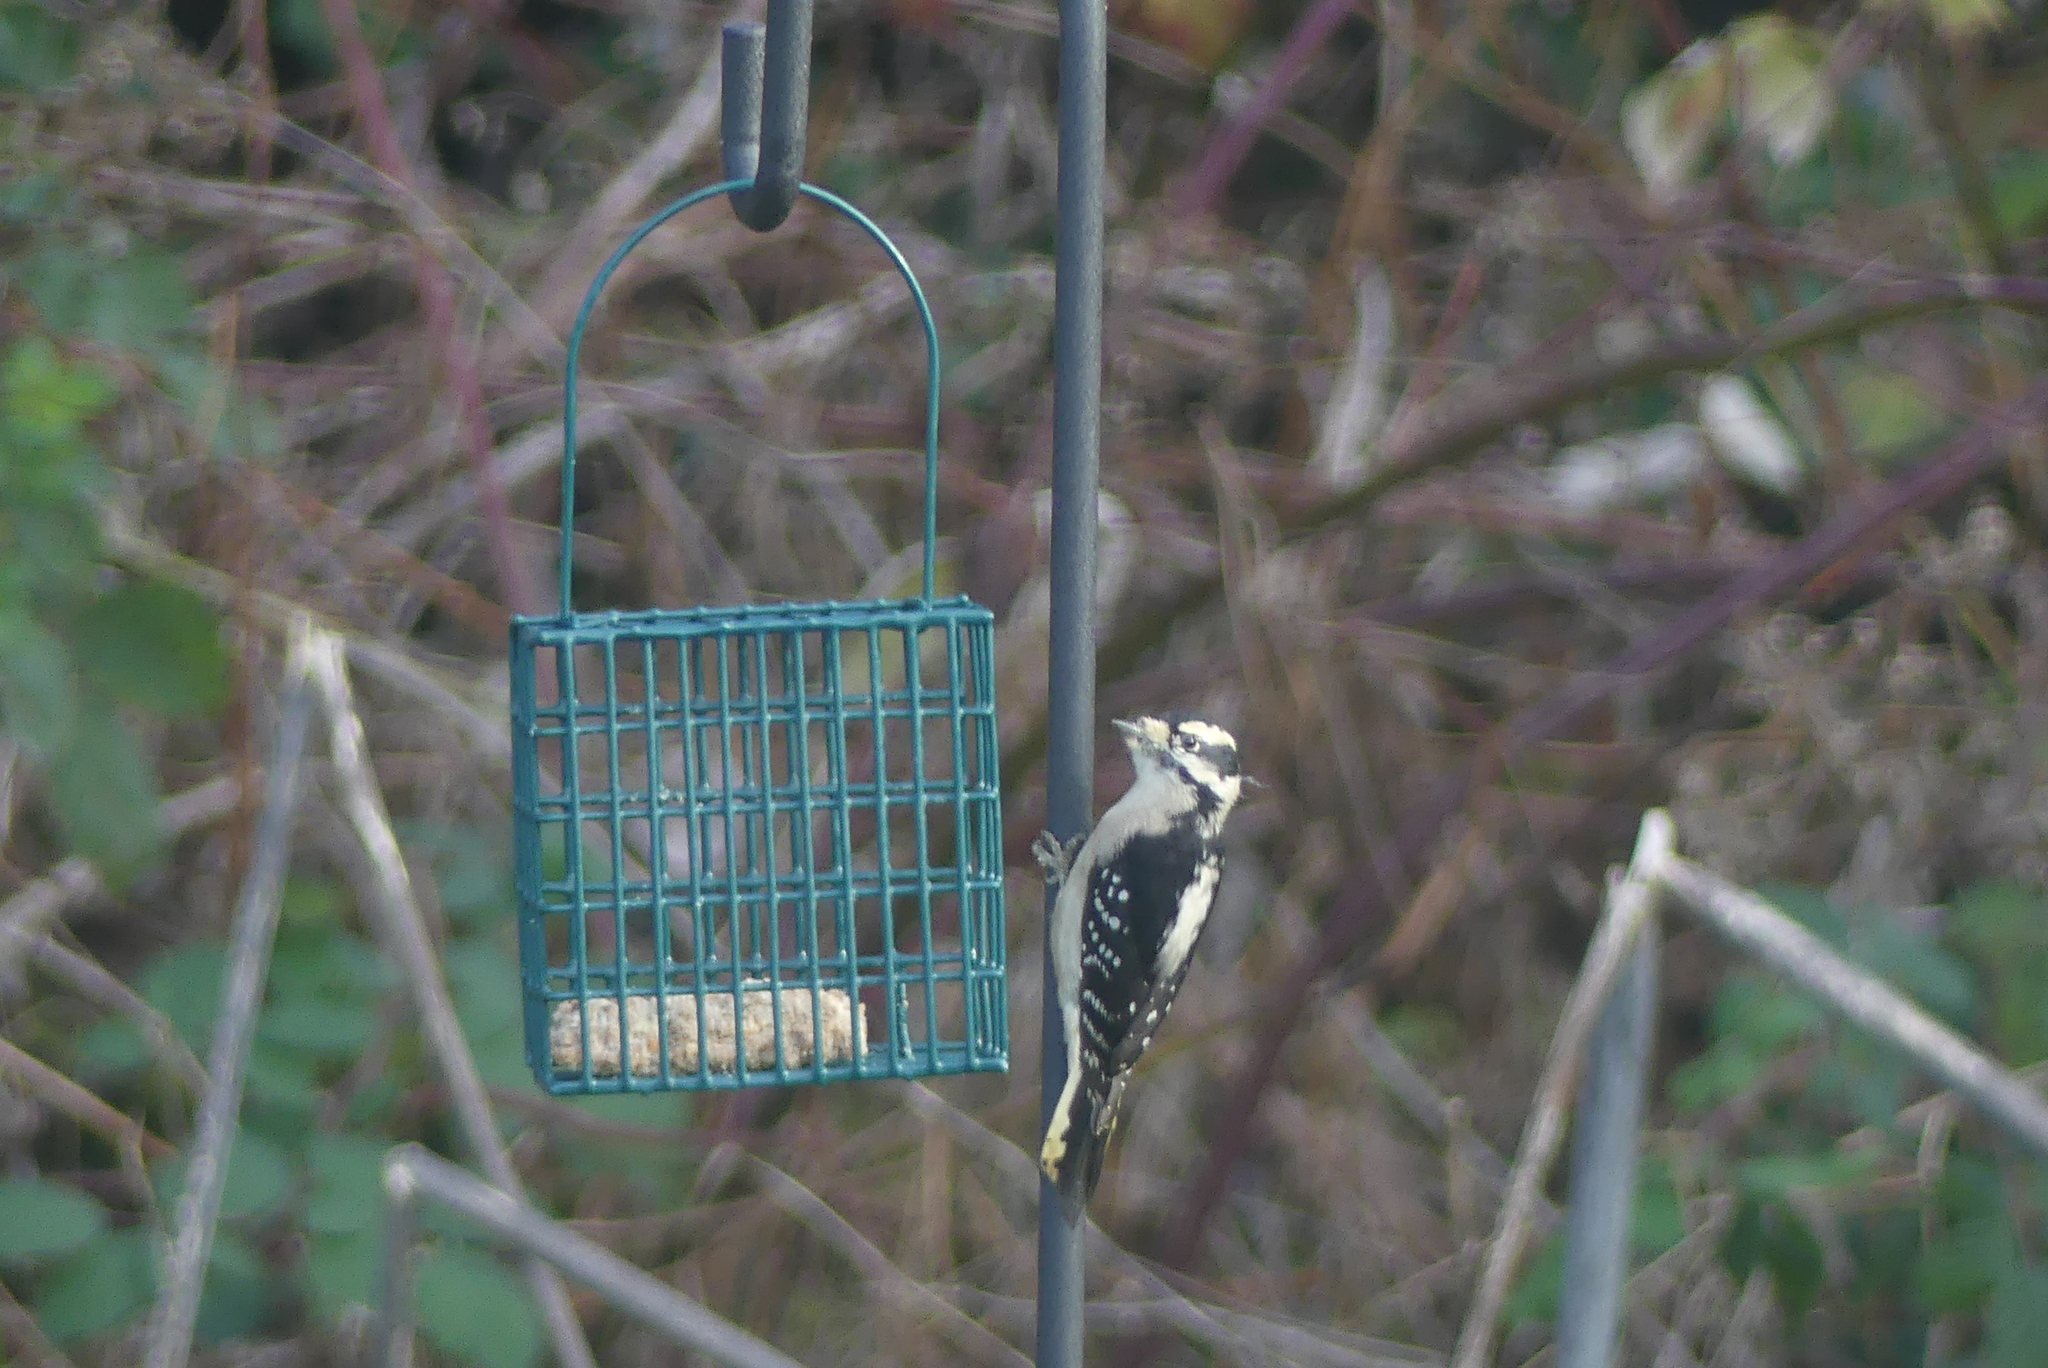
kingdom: Animalia
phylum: Chordata
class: Aves
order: Piciformes
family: Picidae
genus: Dryobates
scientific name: Dryobates pubescens
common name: Downy woodpecker
